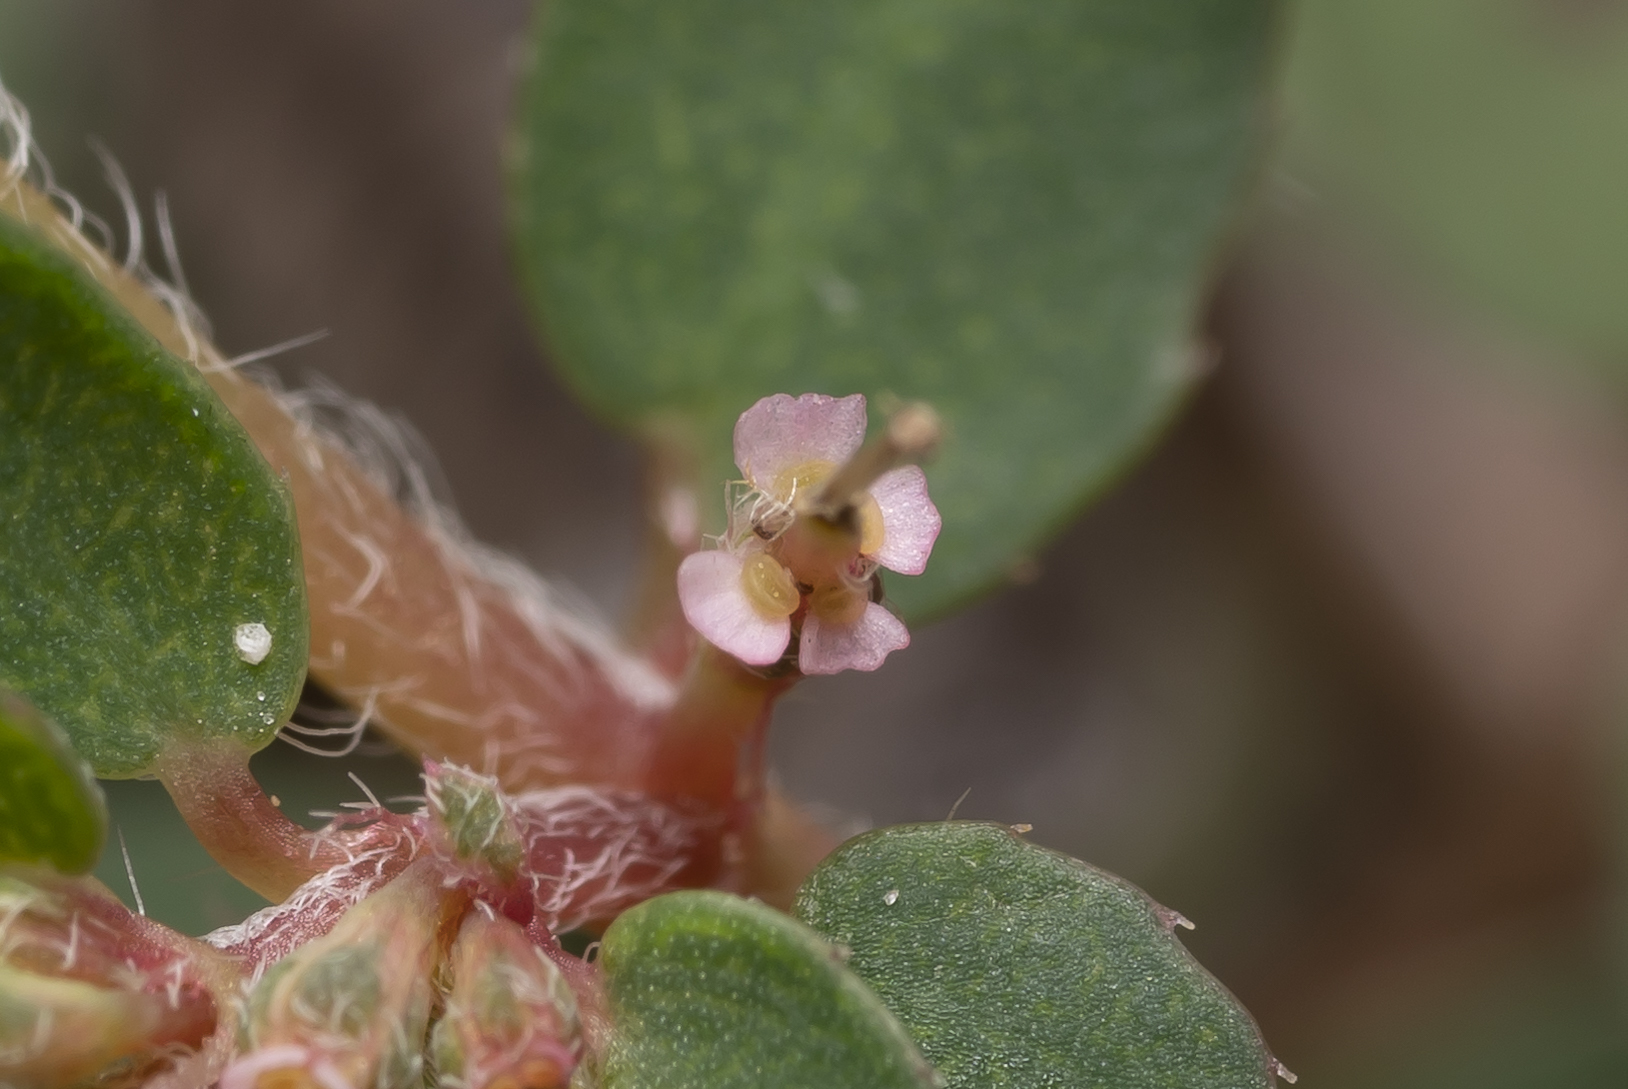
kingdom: Plantae
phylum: Tracheophyta
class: Magnoliopsida
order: Malpighiales
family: Euphorbiaceae
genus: Euphorbia
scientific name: Euphorbia maculata
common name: Spotted spurge
